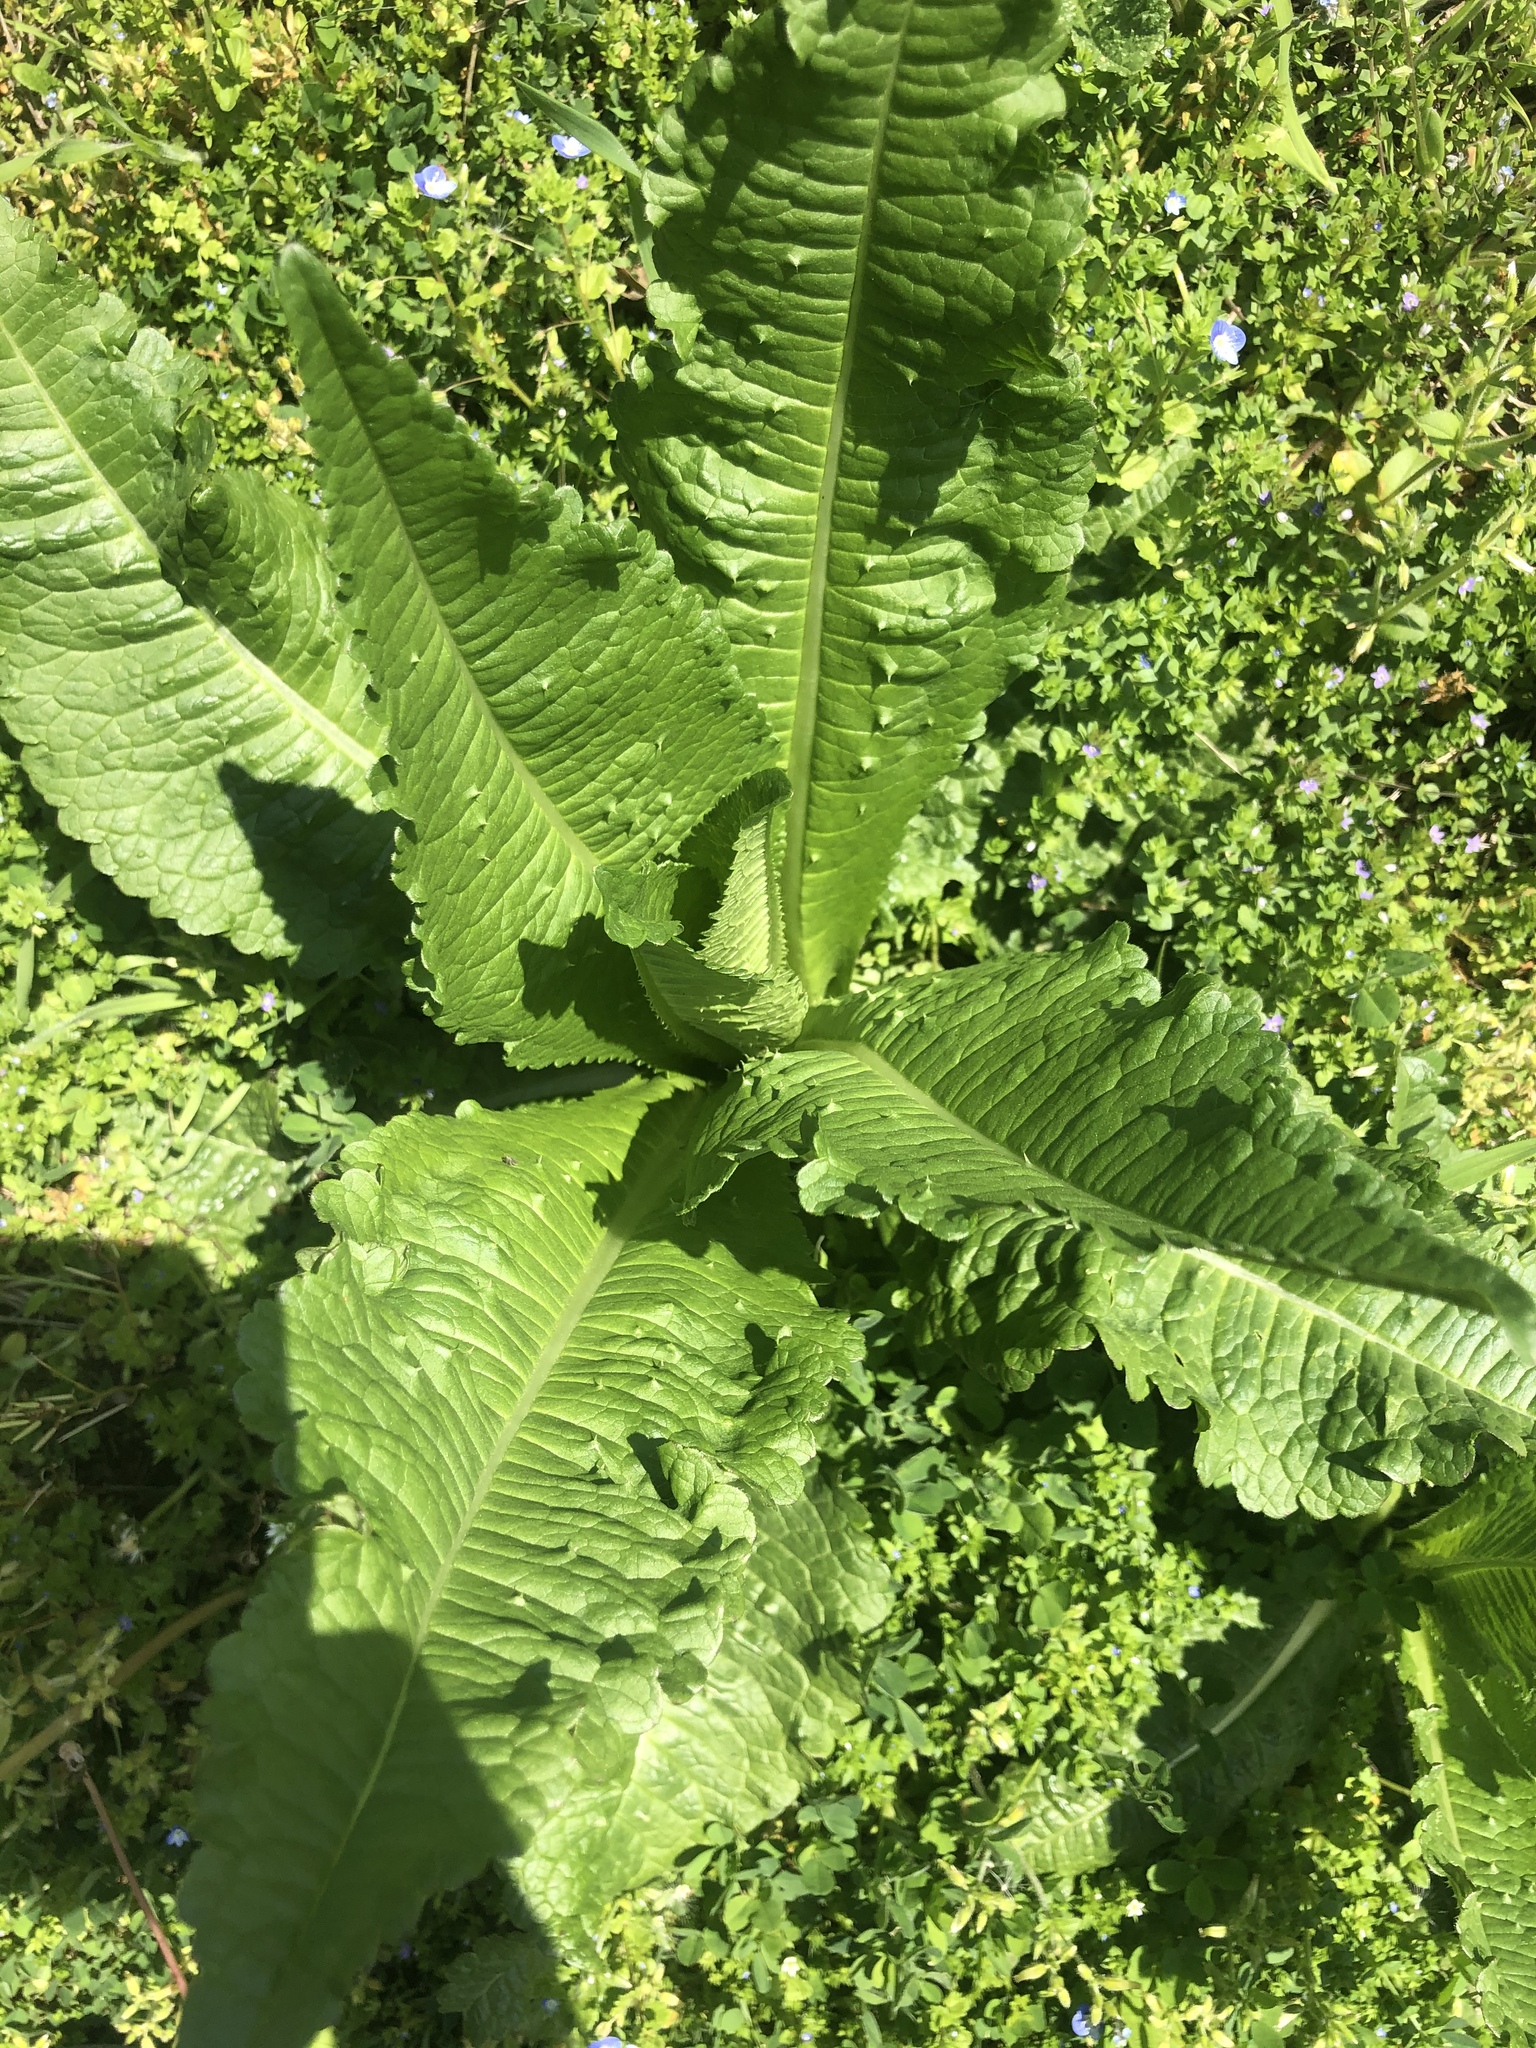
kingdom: Plantae
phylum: Tracheophyta
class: Magnoliopsida
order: Dipsacales
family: Caprifoliaceae
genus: Dipsacus
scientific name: Dipsacus fullonum
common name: Teasel
